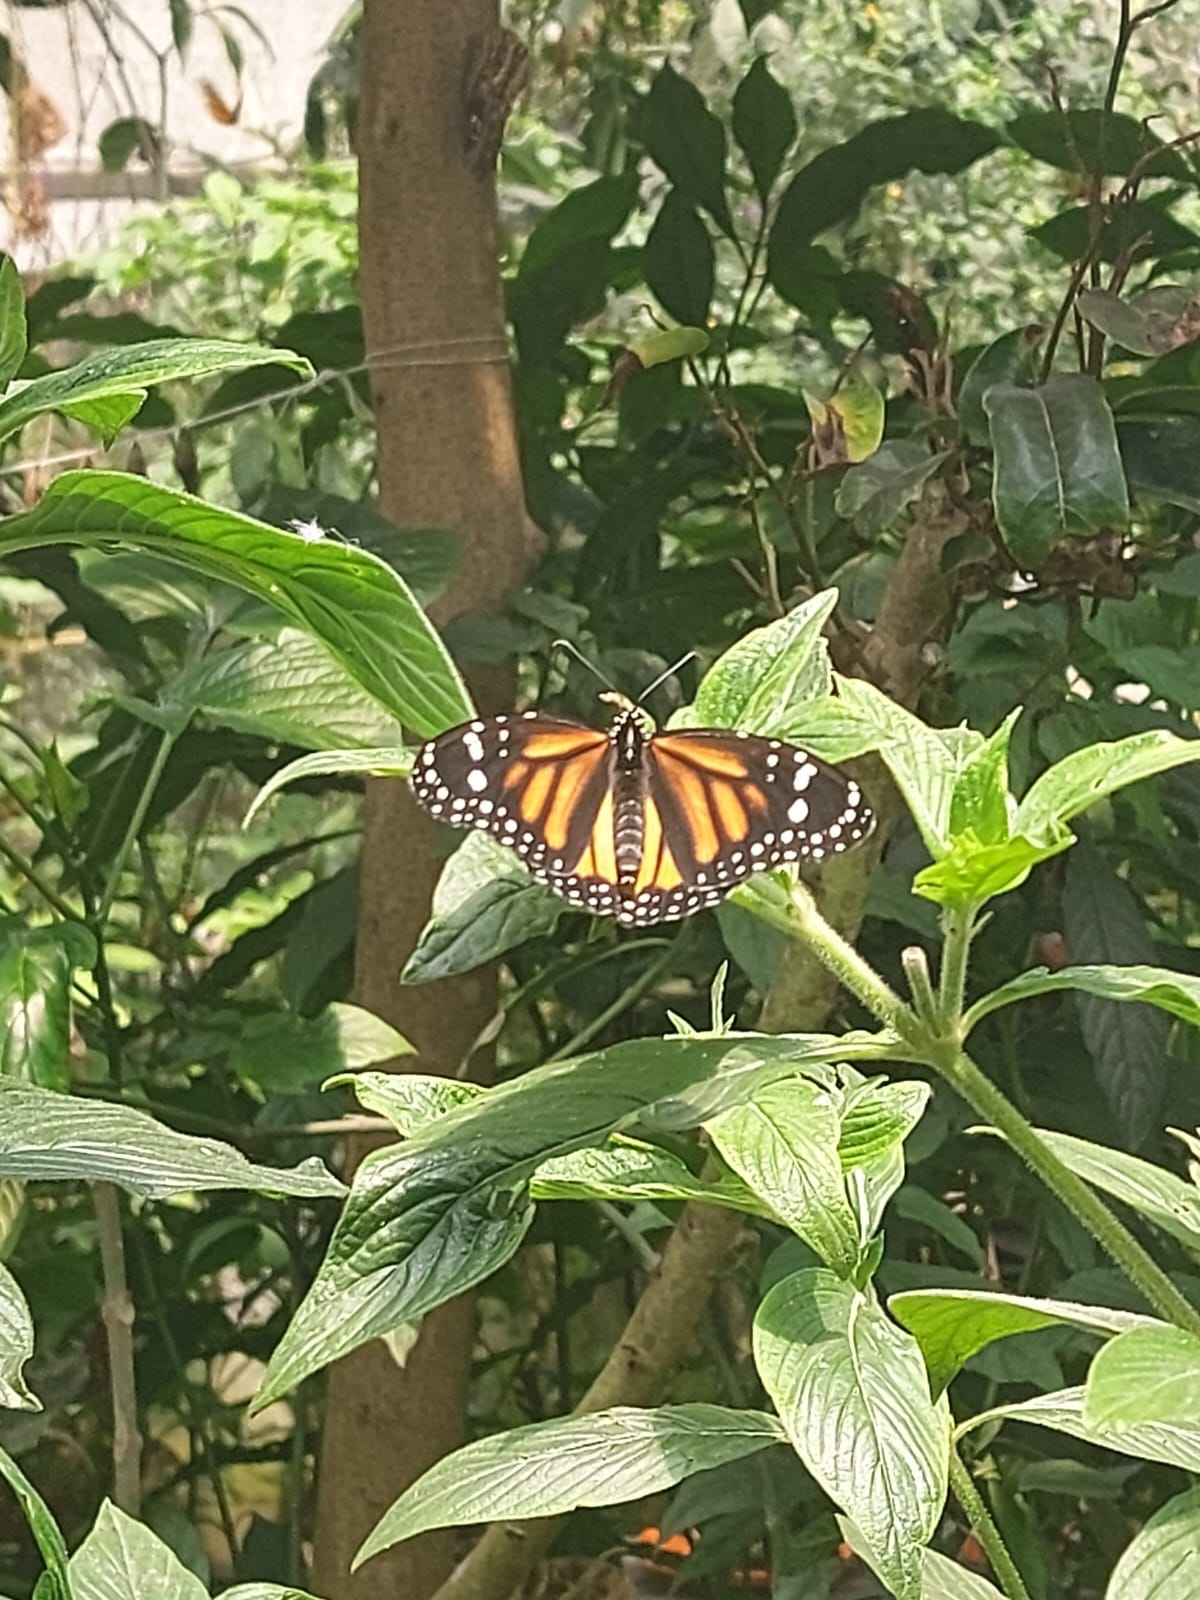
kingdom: Animalia
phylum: Arthropoda
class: Insecta
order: Lepidoptera
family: Nymphalidae
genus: Danaus
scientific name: Danaus plexippus
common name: Monarch
